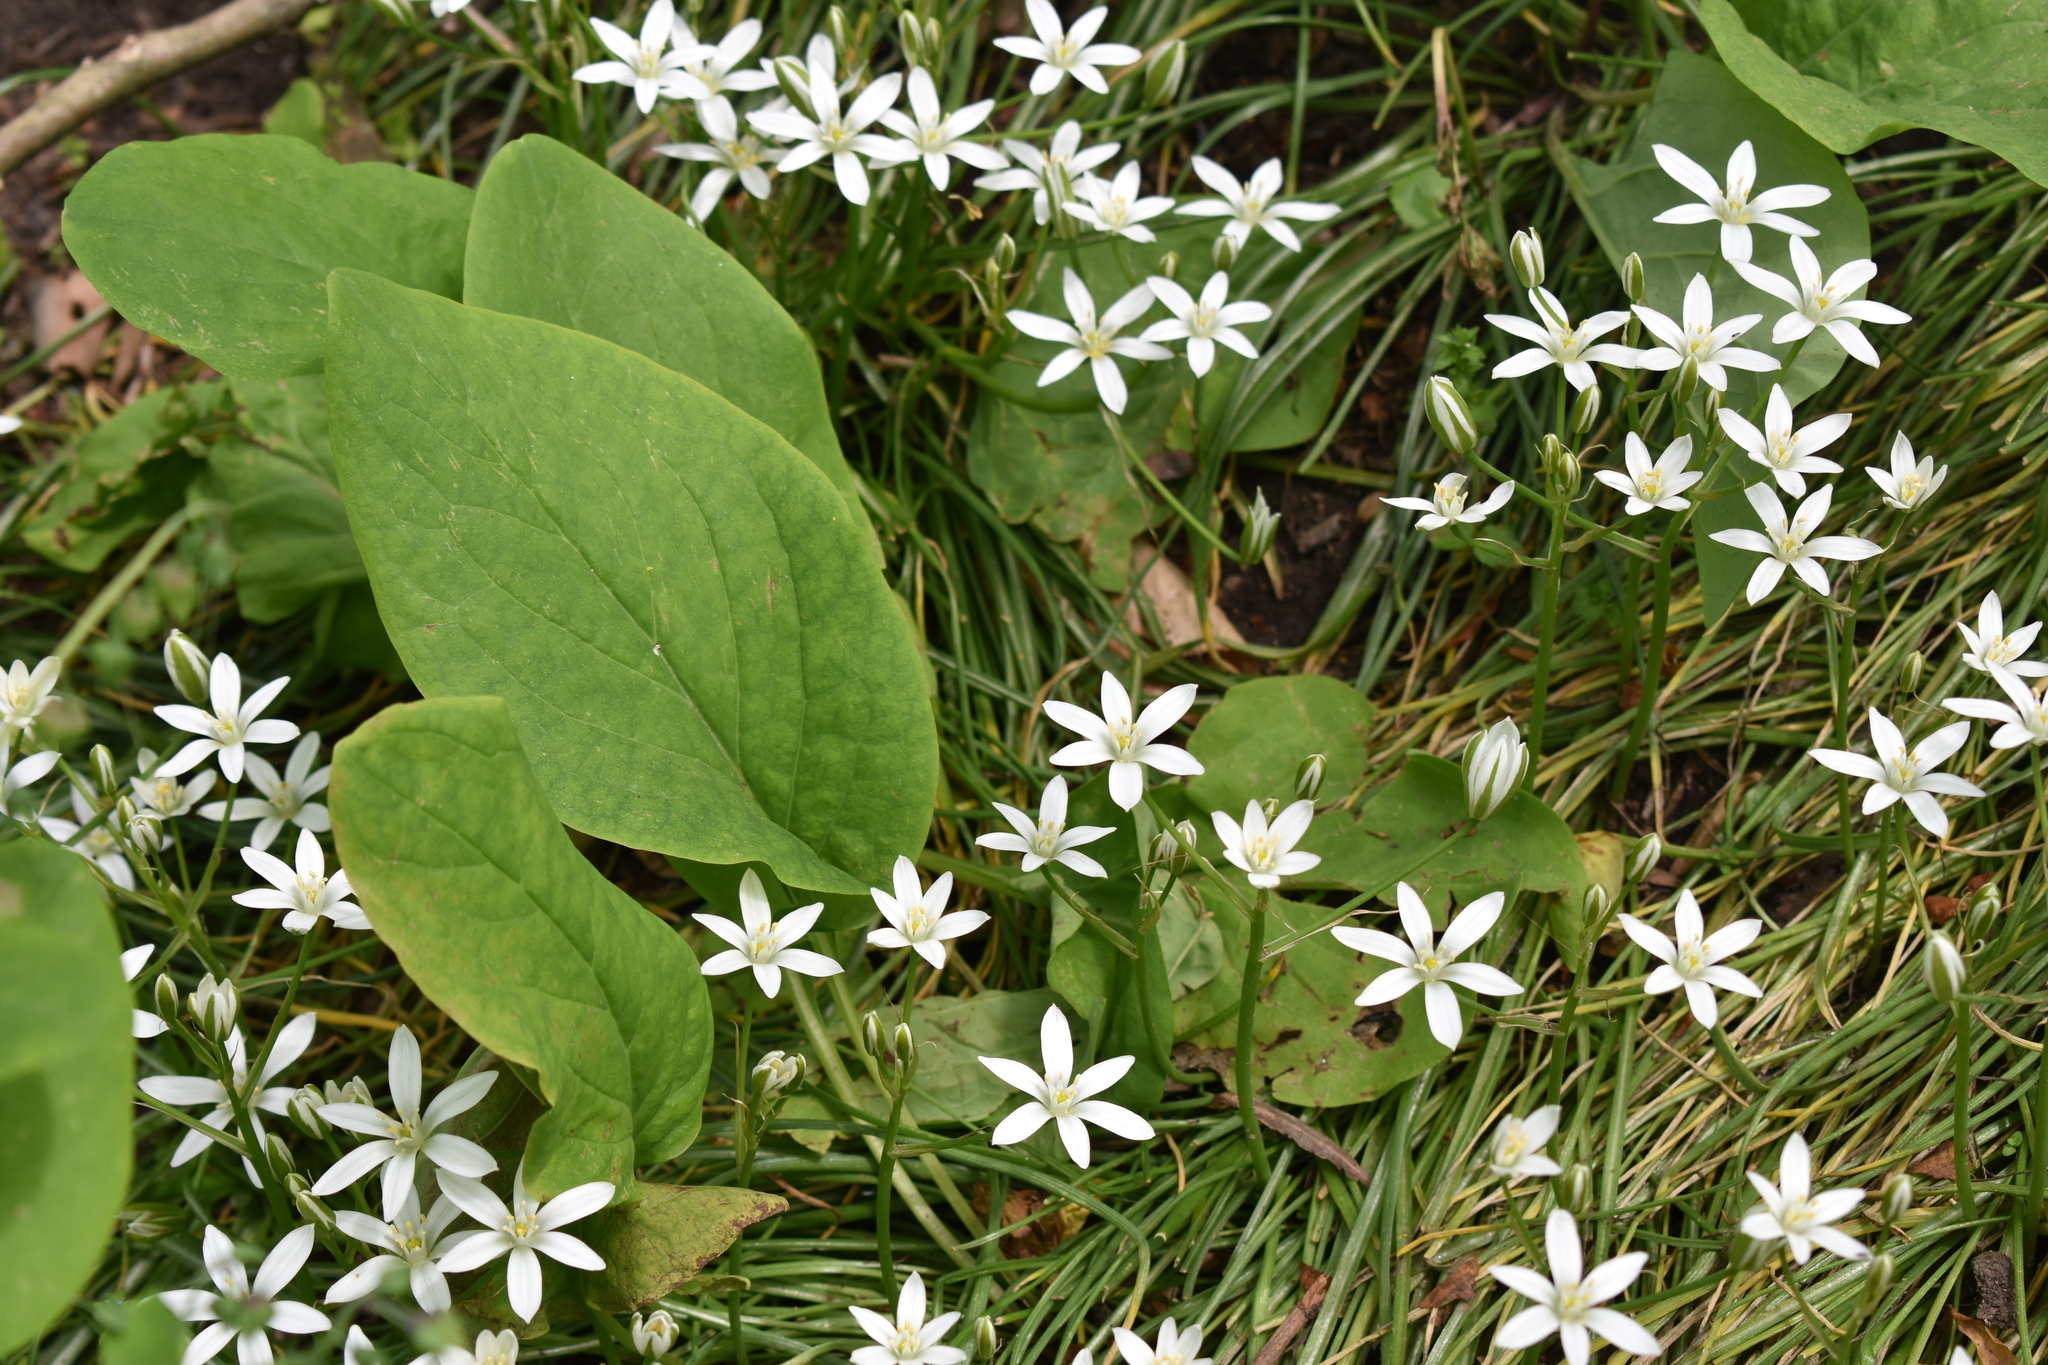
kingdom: Plantae
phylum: Tracheophyta
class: Liliopsida
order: Asparagales
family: Asparagaceae
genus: Ornithogalum
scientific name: Ornithogalum umbellatum
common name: Garden star-of-bethlehem
